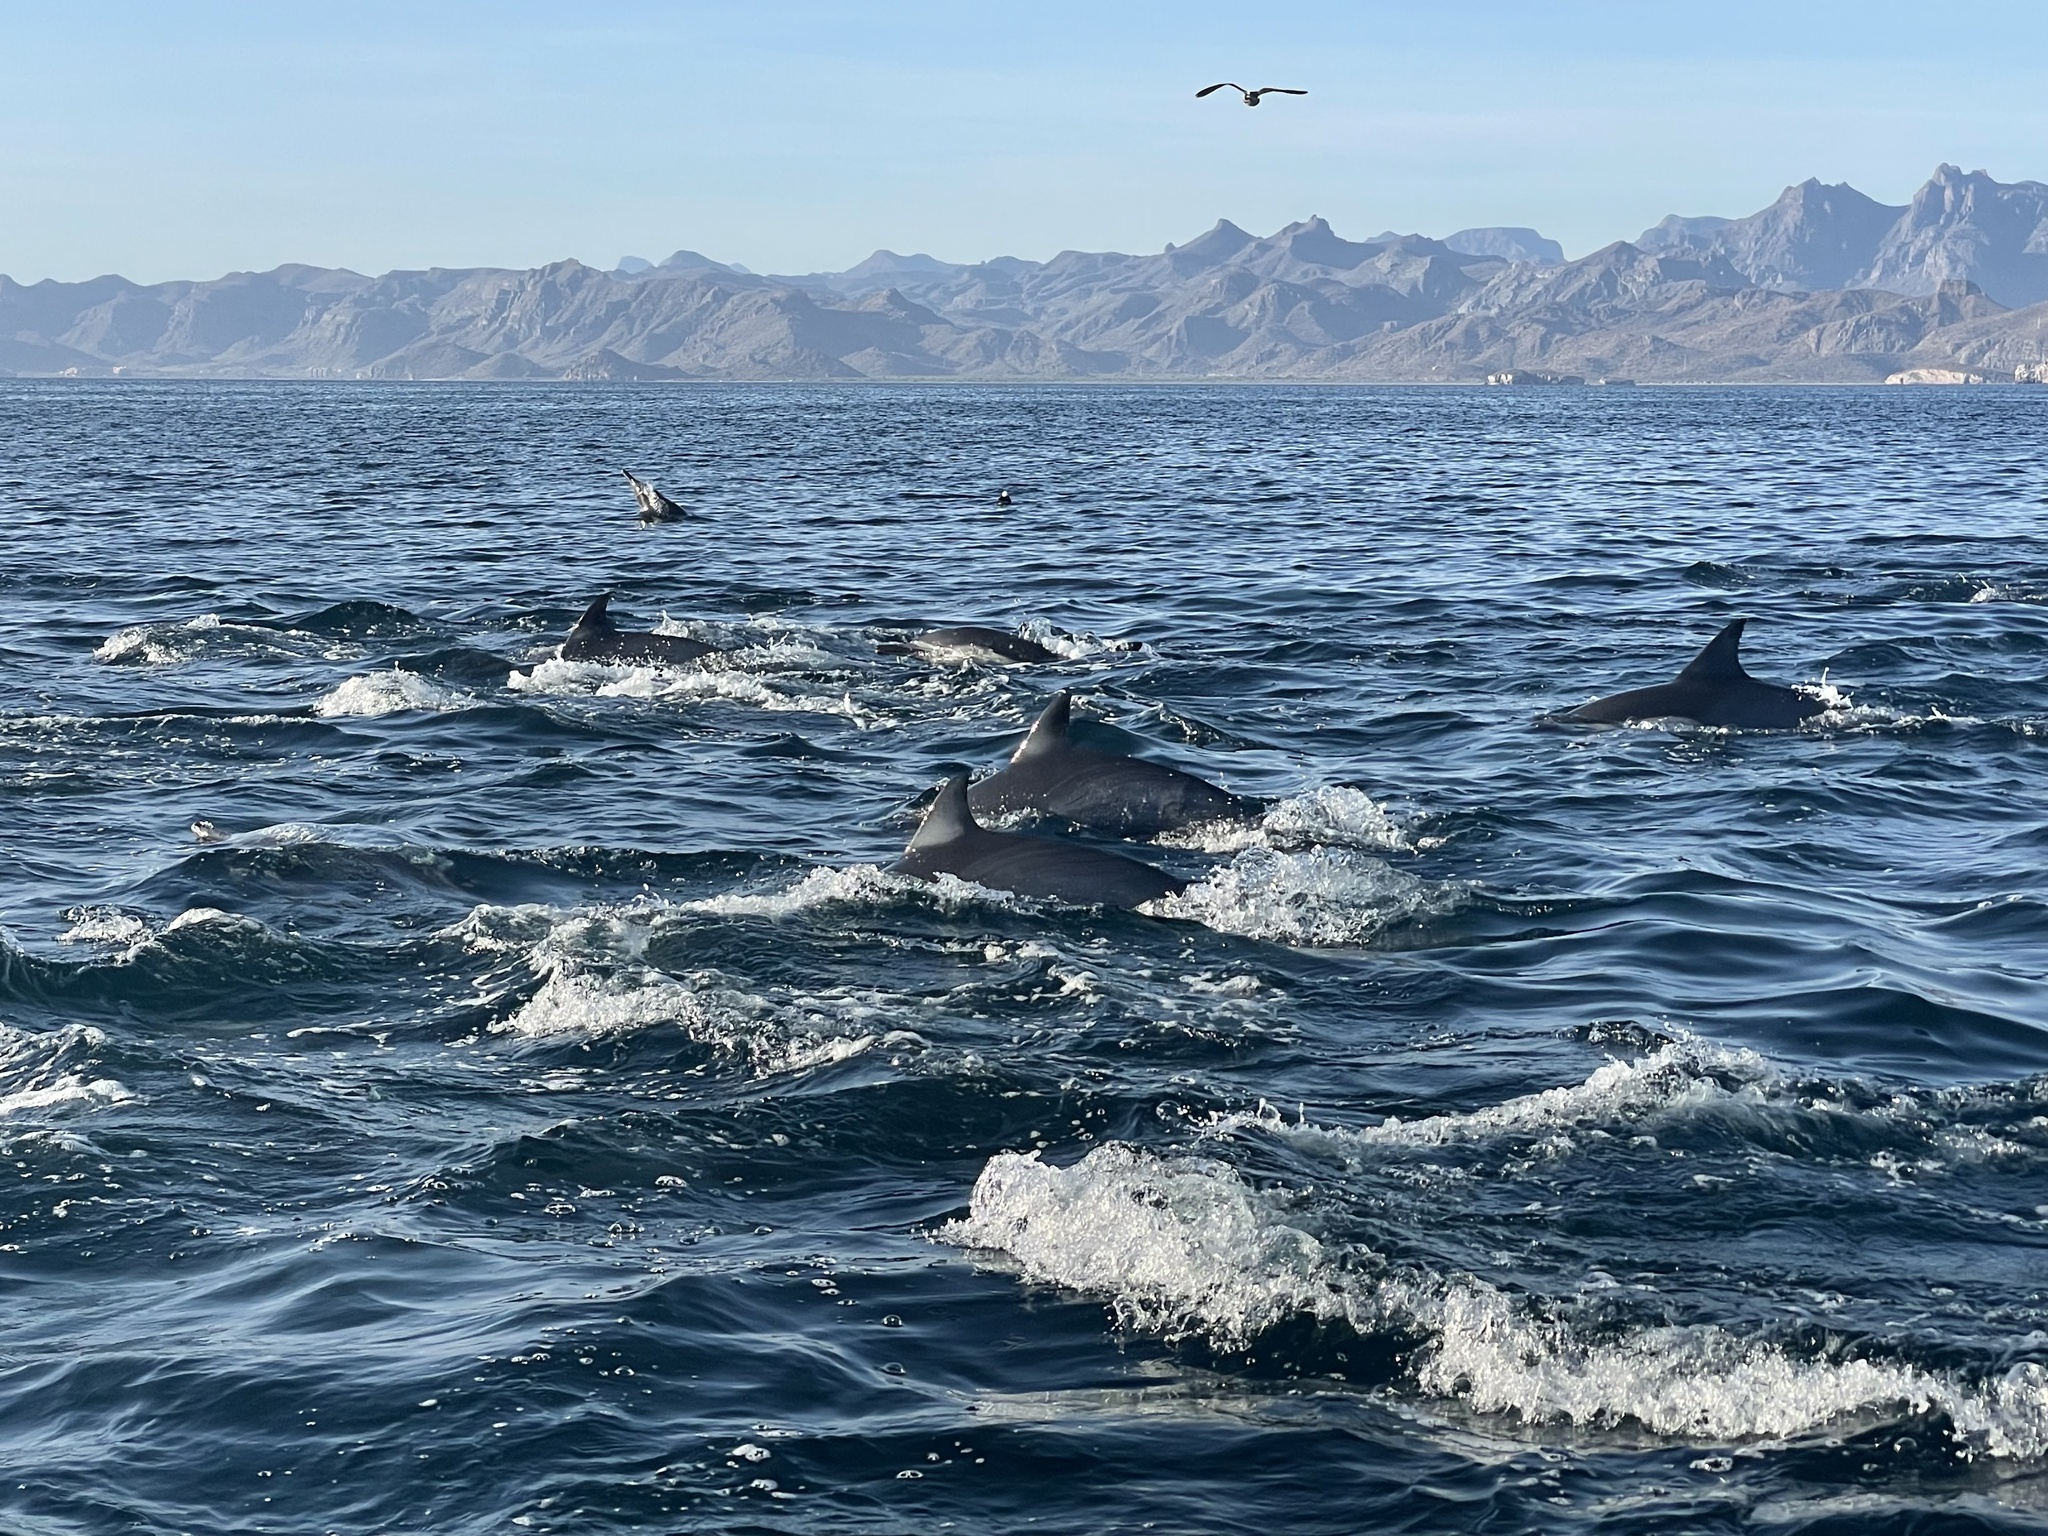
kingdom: Animalia
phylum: Chordata
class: Mammalia
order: Cetacea
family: Delphinidae
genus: Delphinus
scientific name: Delphinus delphis
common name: Common dolphin
